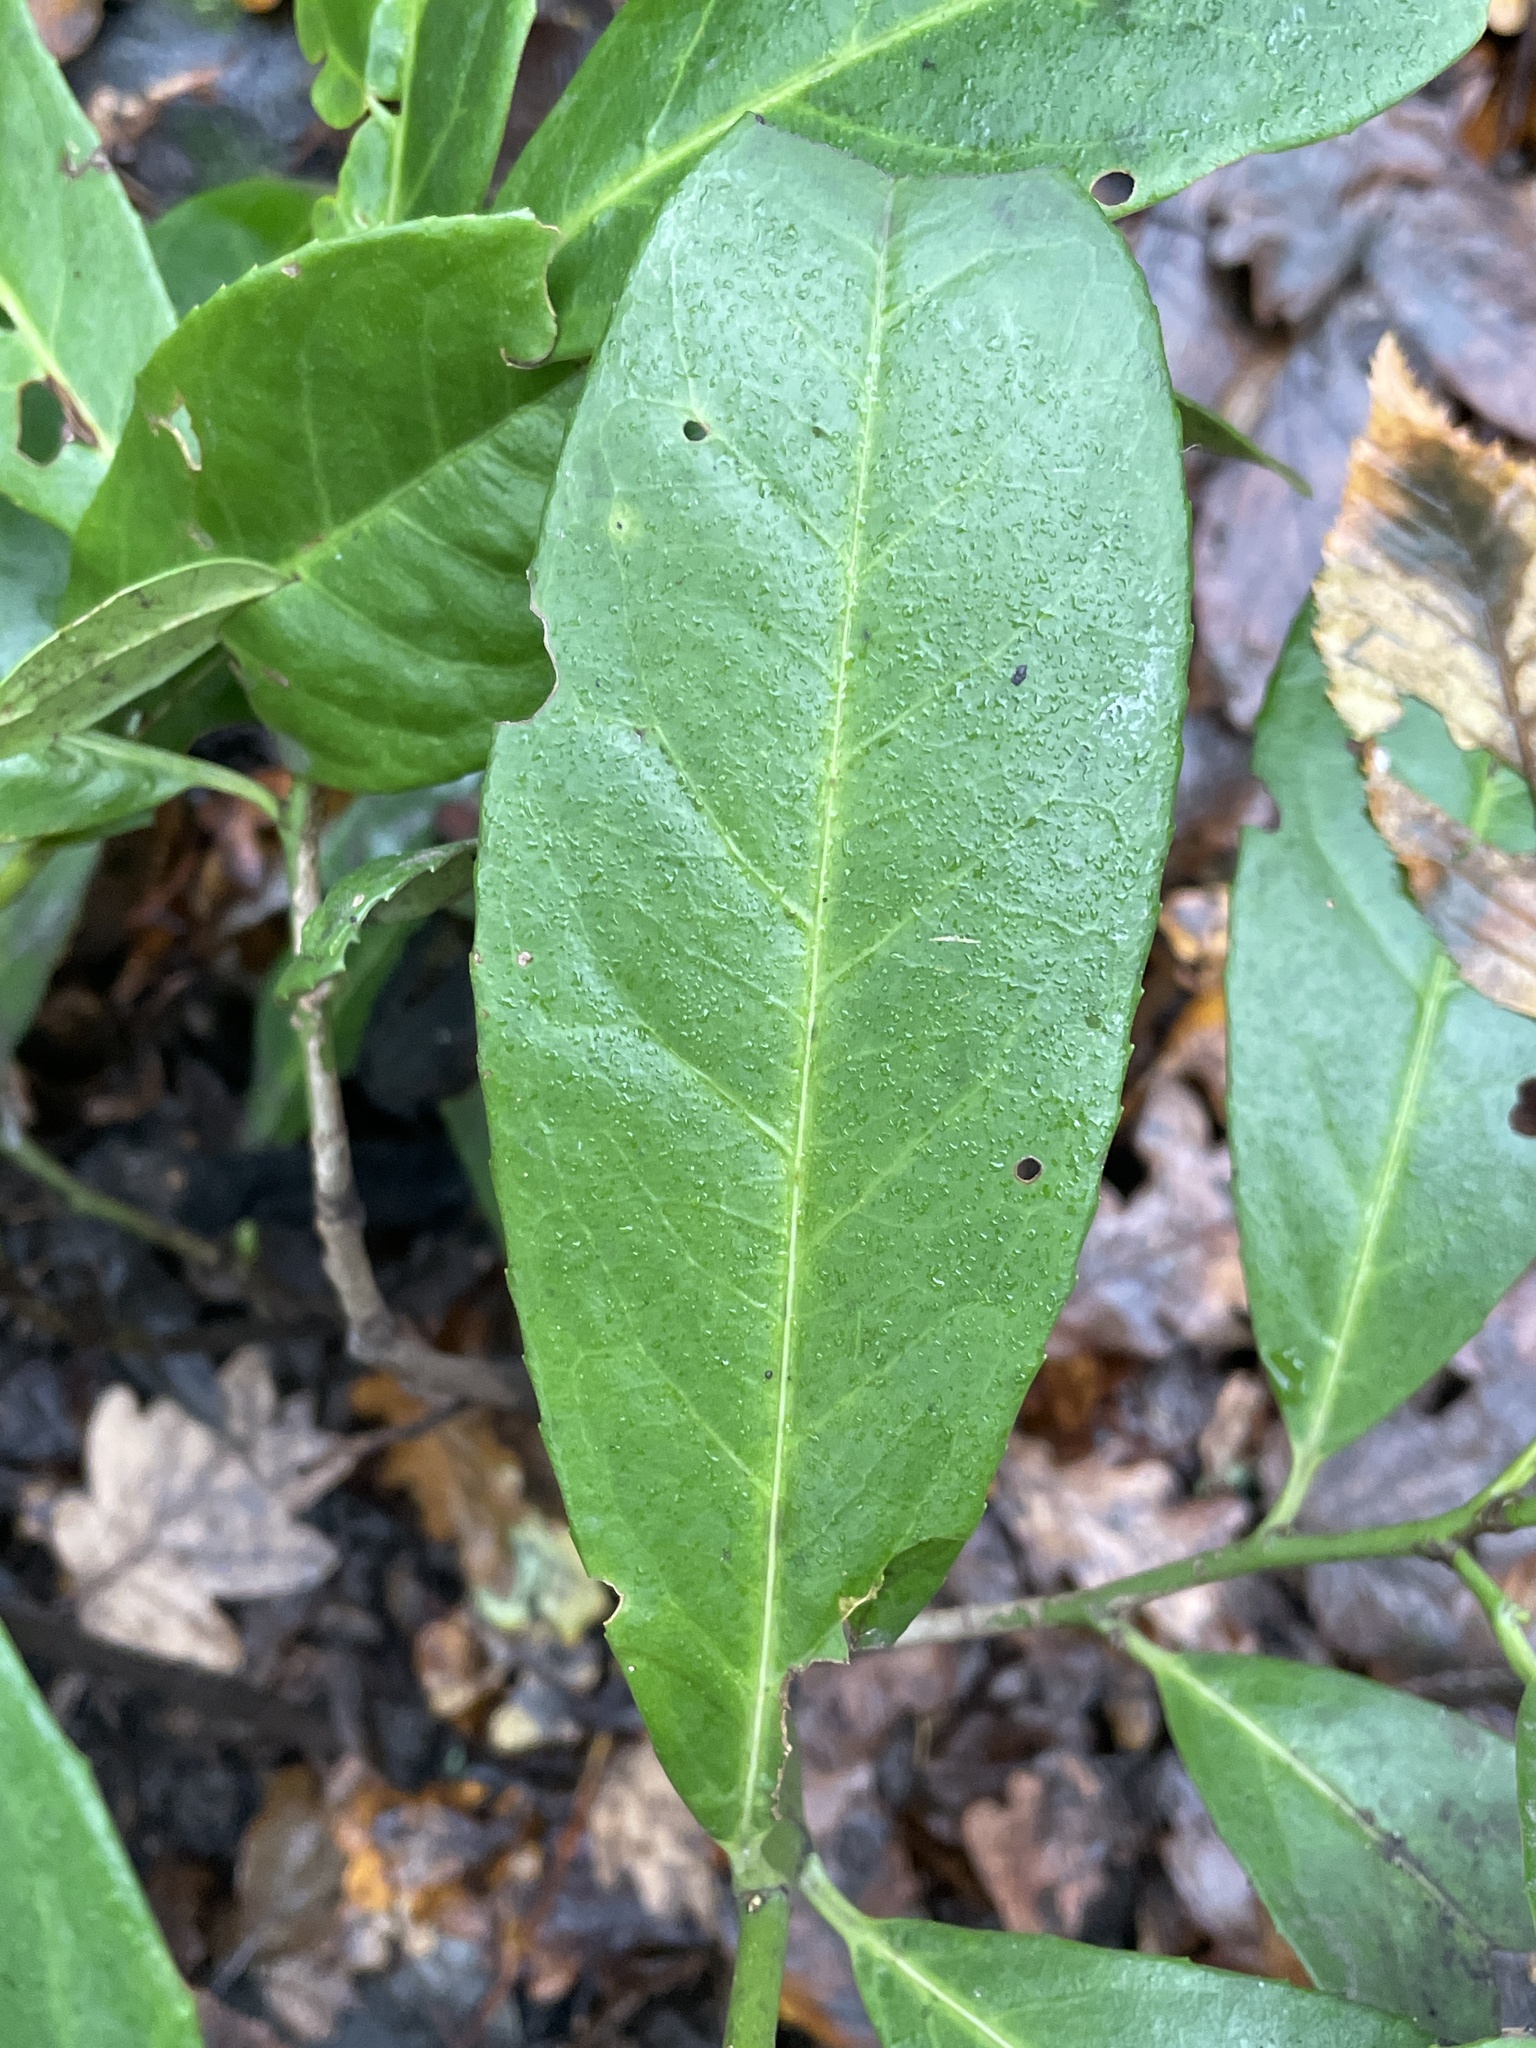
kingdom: Plantae
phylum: Tracheophyta
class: Magnoliopsida
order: Rosales
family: Rosaceae
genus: Prunus
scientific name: Prunus laurocerasus
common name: Cherry laurel
